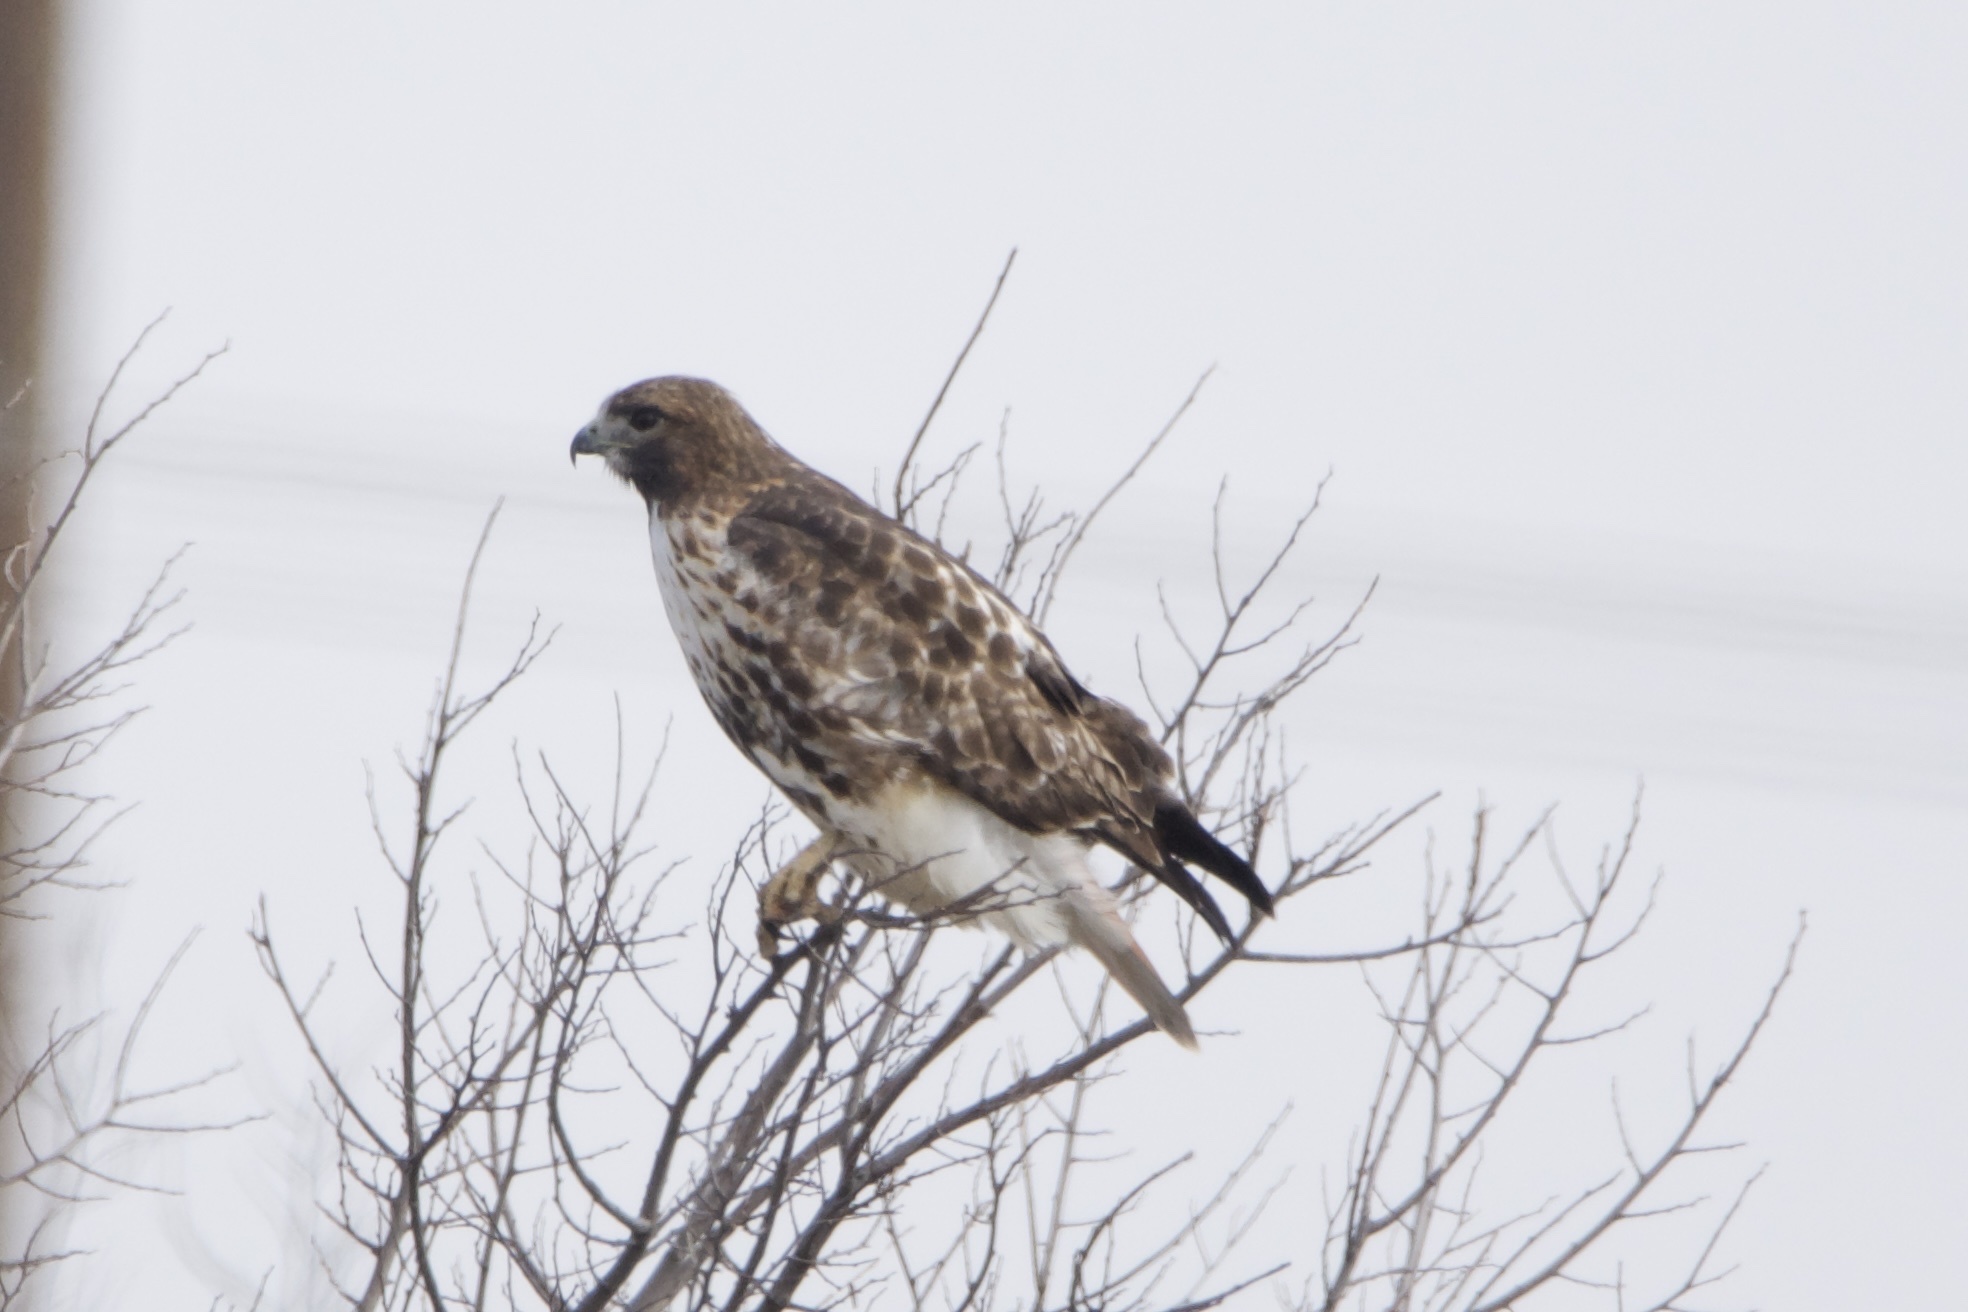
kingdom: Animalia
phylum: Chordata
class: Aves
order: Accipitriformes
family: Accipitridae
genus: Buteo
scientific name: Buteo jamaicensis
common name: Red-tailed hawk
